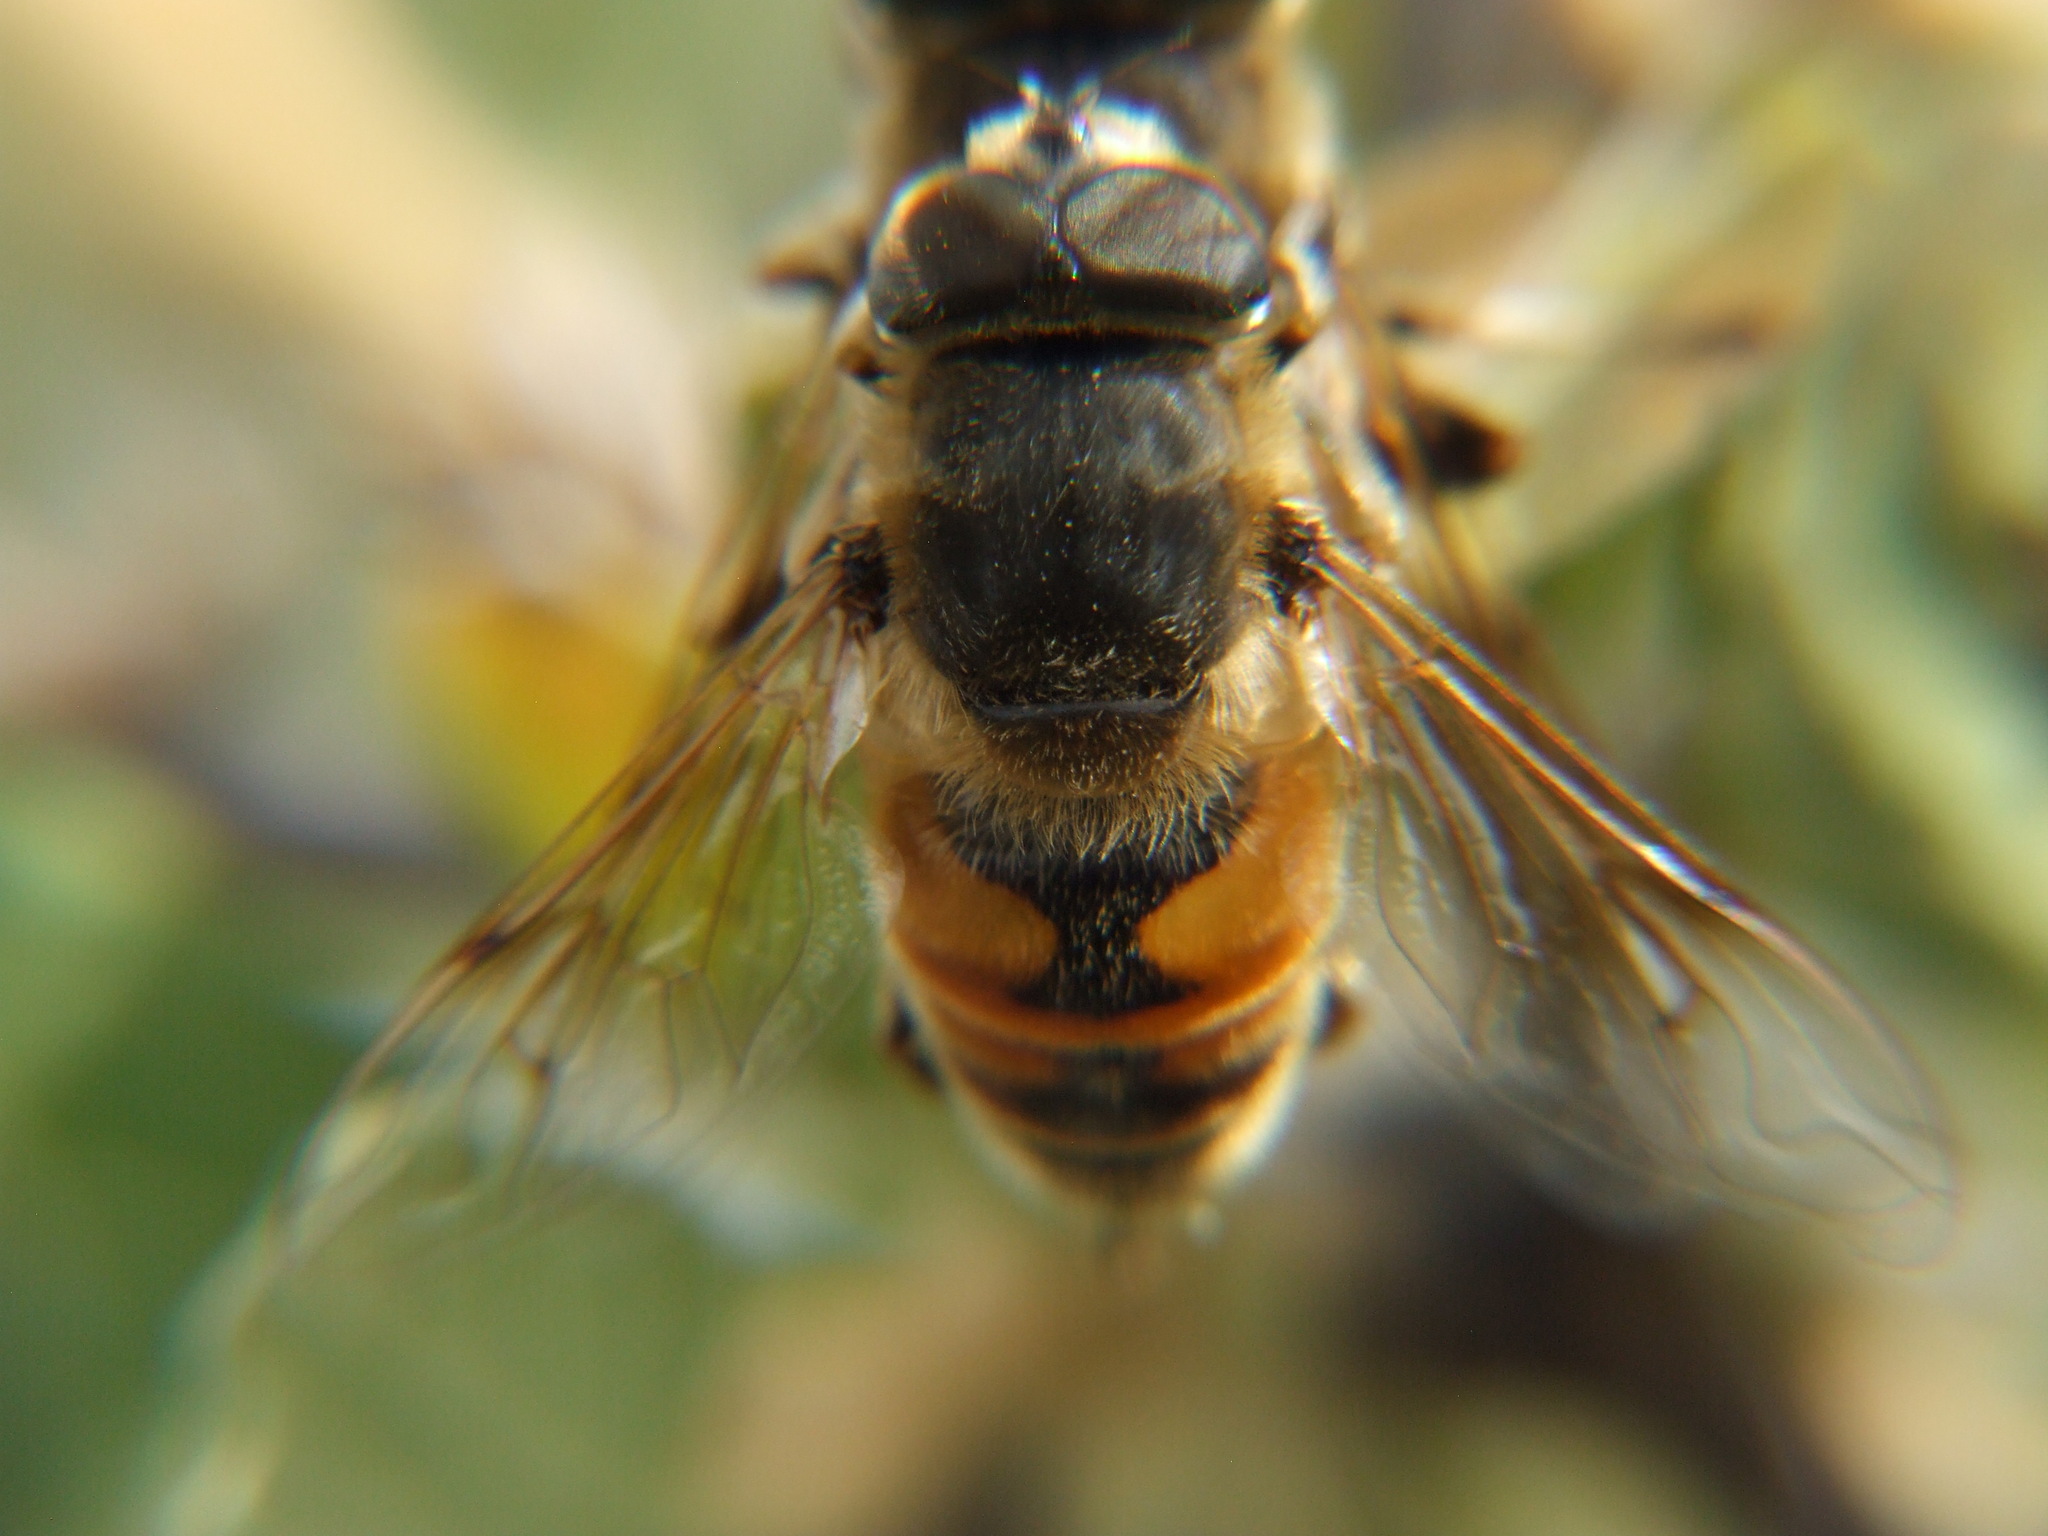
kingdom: Animalia
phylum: Arthropoda
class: Insecta
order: Diptera
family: Syrphidae
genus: Eristalis
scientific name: Eristalis tenax
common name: Drone fly
